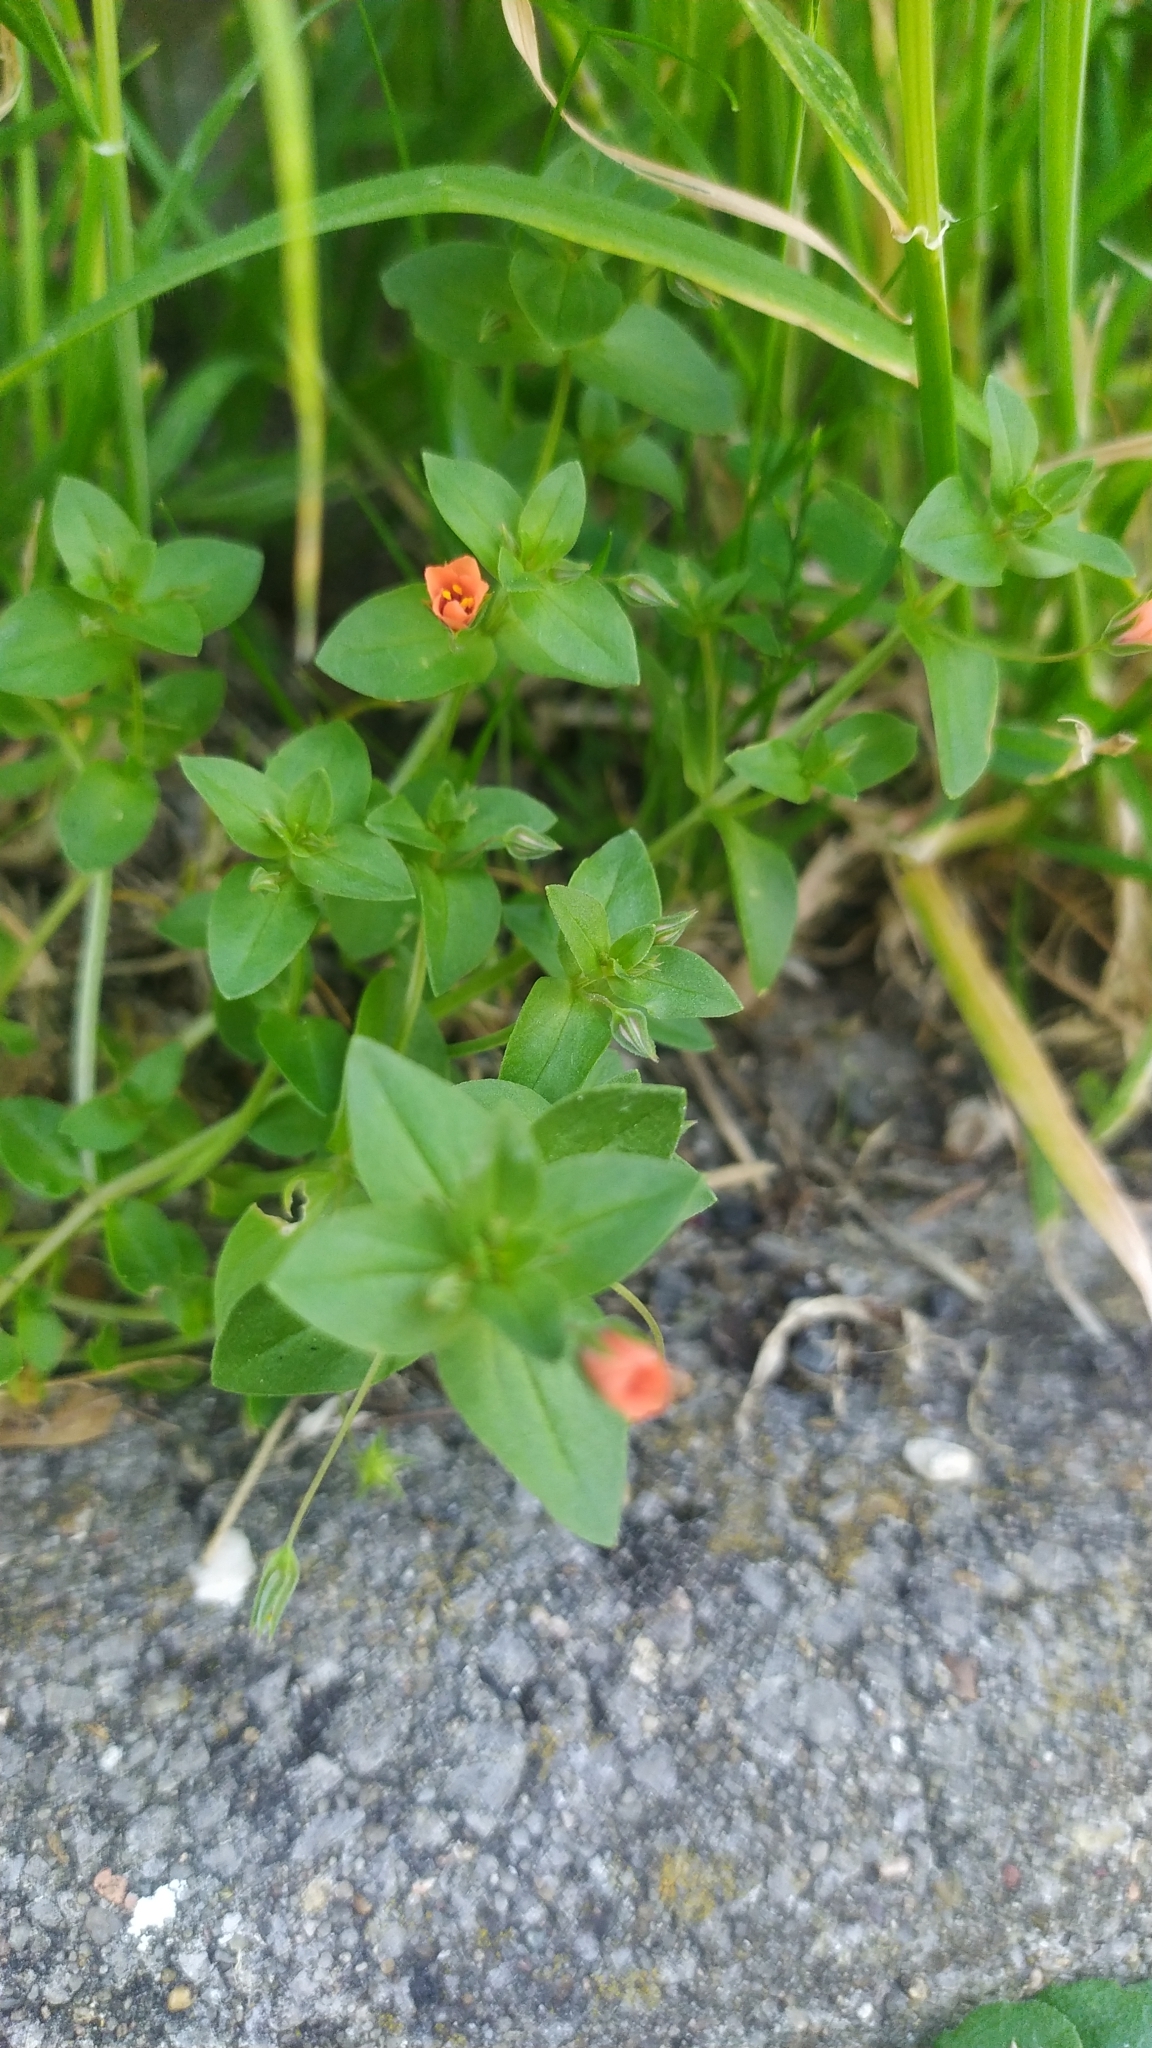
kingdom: Plantae
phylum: Tracheophyta
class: Magnoliopsida
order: Ericales
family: Primulaceae
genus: Lysimachia
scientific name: Lysimachia arvensis
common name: Scarlet pimpernel
